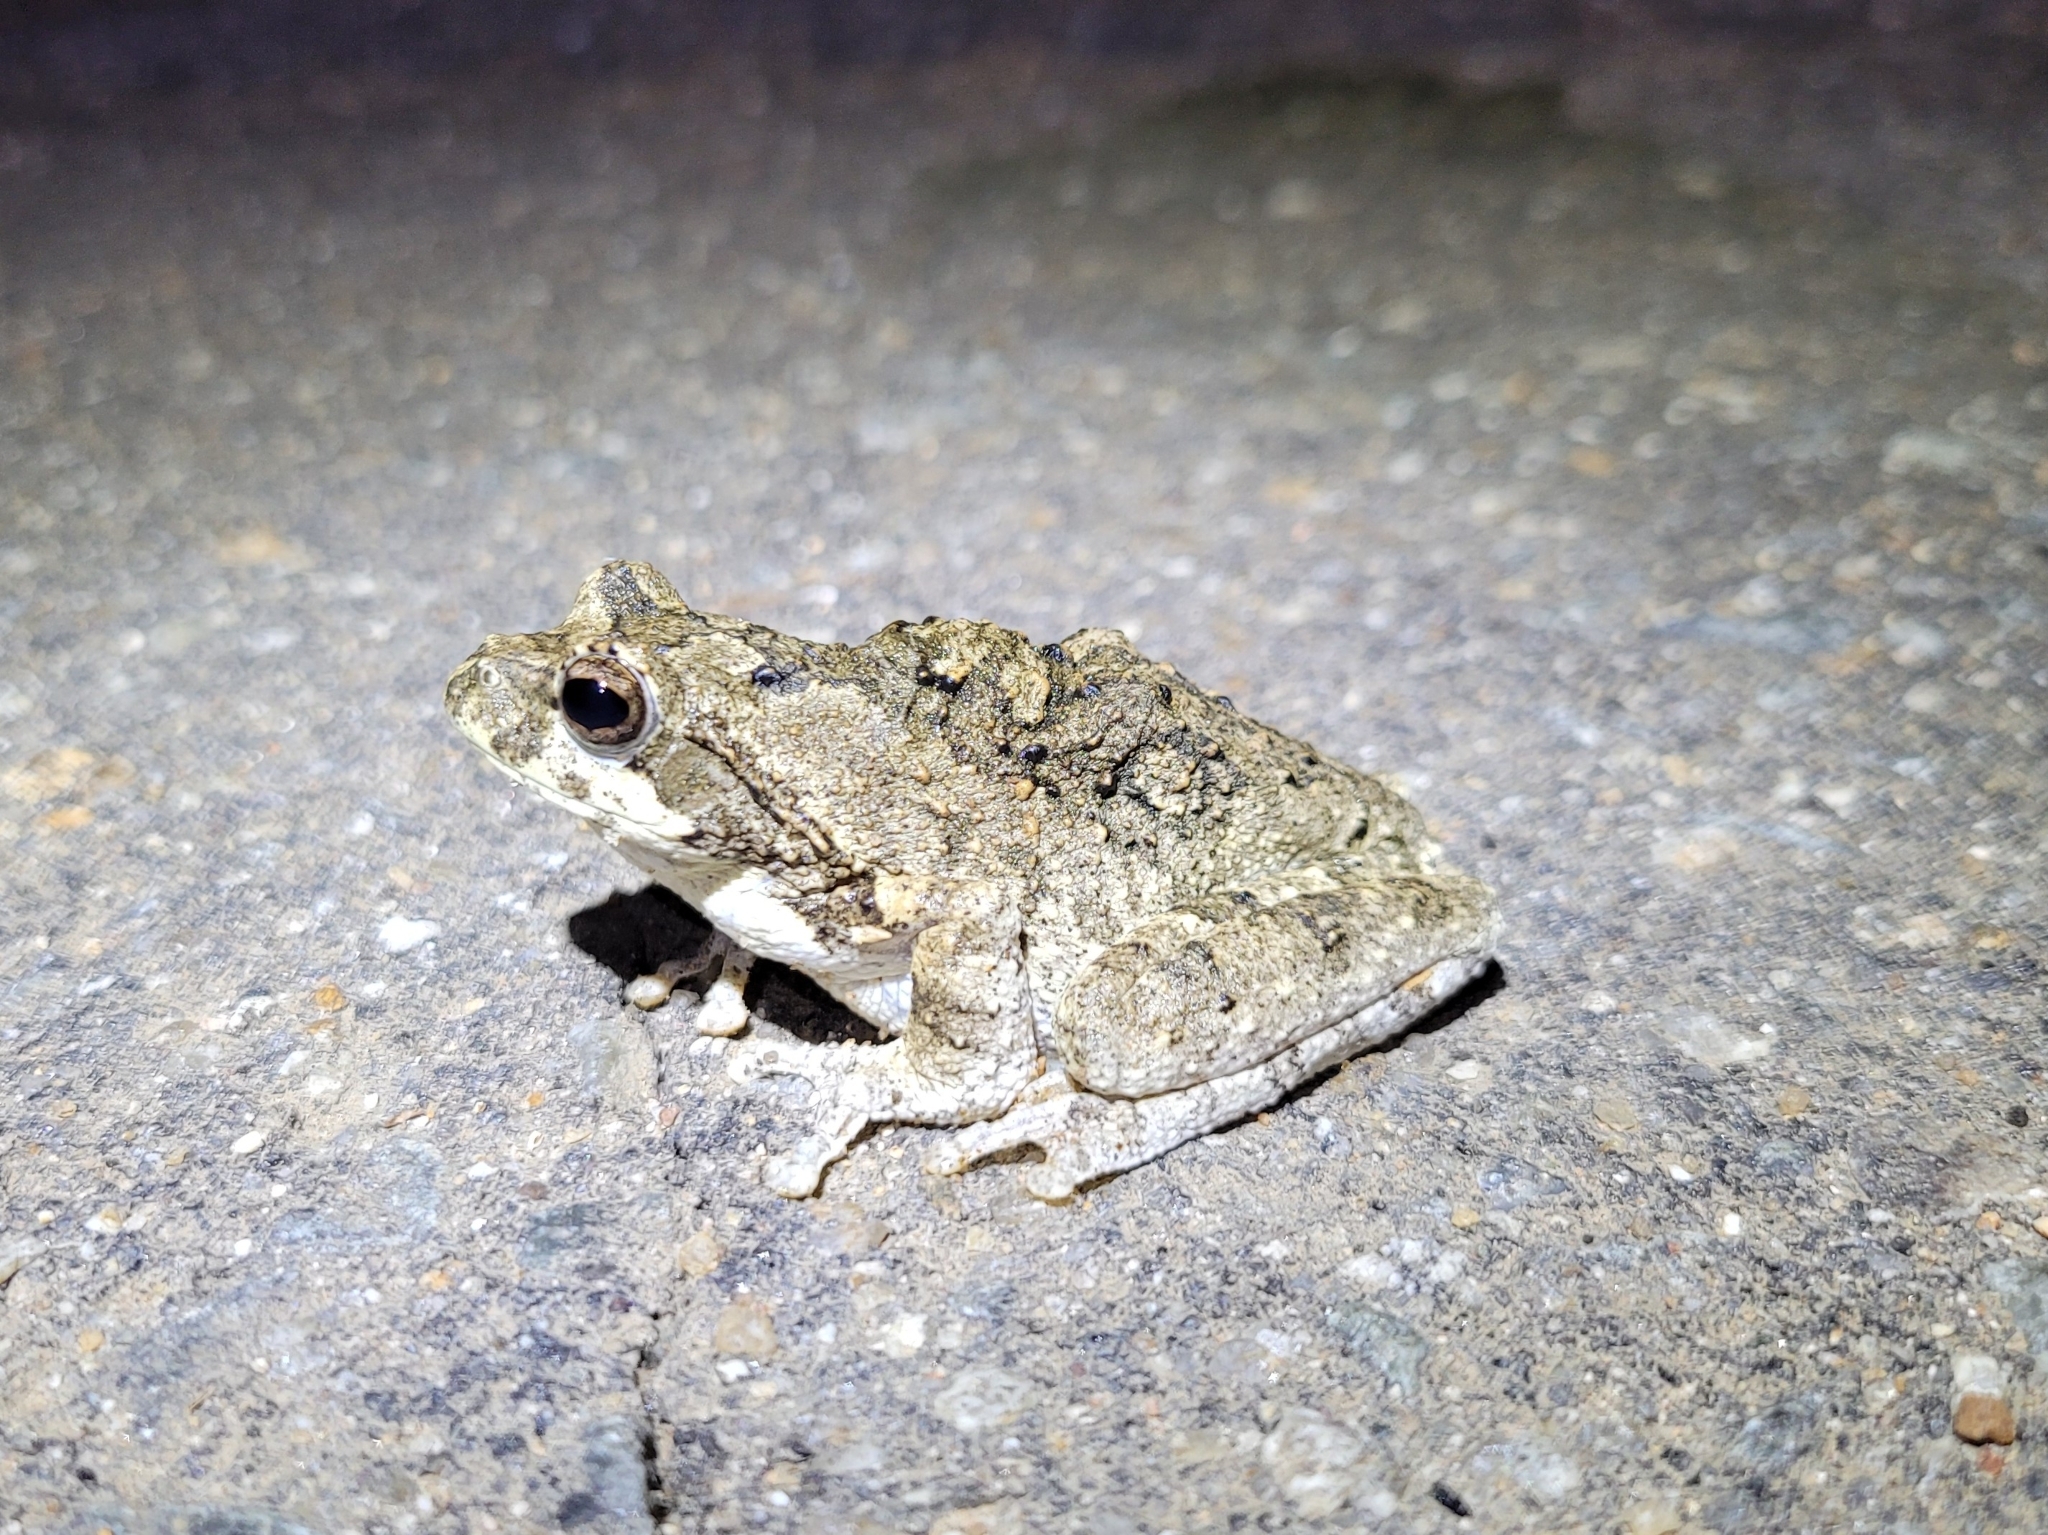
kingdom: Animalia
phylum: Chordata
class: Amphibia
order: Anura
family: Rhacophoridae
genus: Chiromantis
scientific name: Chiromantis xerampelina
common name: African gray treefrog
